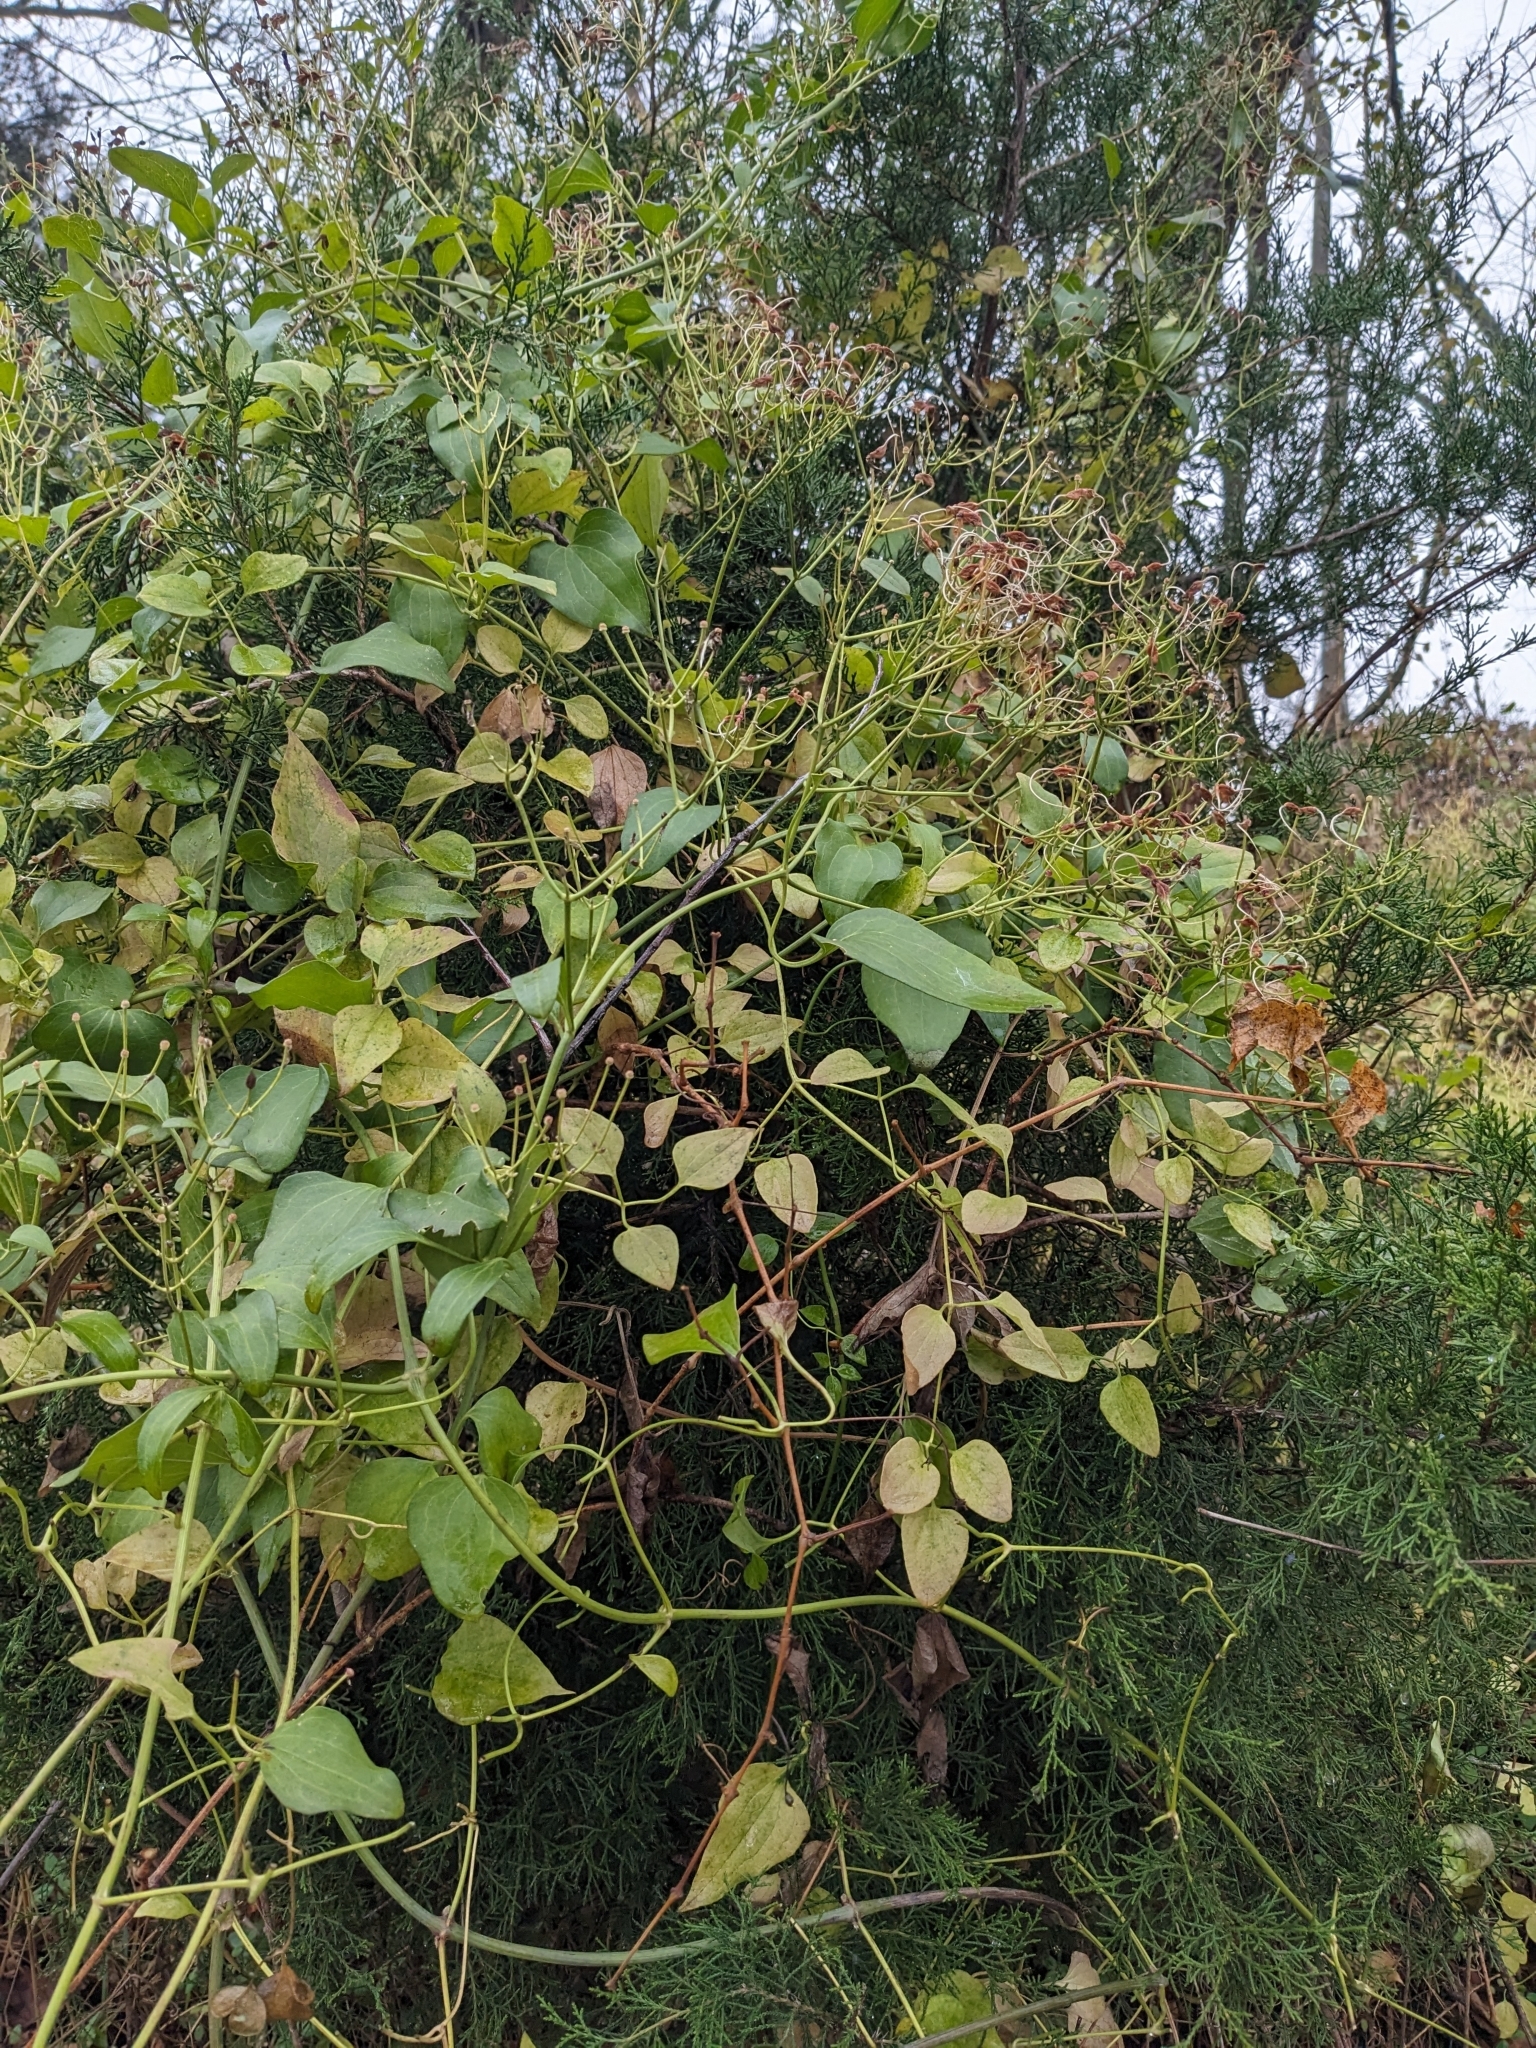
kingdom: Plantae
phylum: Tracheophyta
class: Magnoliopsida
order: Ranunculales
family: Ranunculaceae
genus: Clematis
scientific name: Clematis terniflora
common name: Sweet autumn clematis
